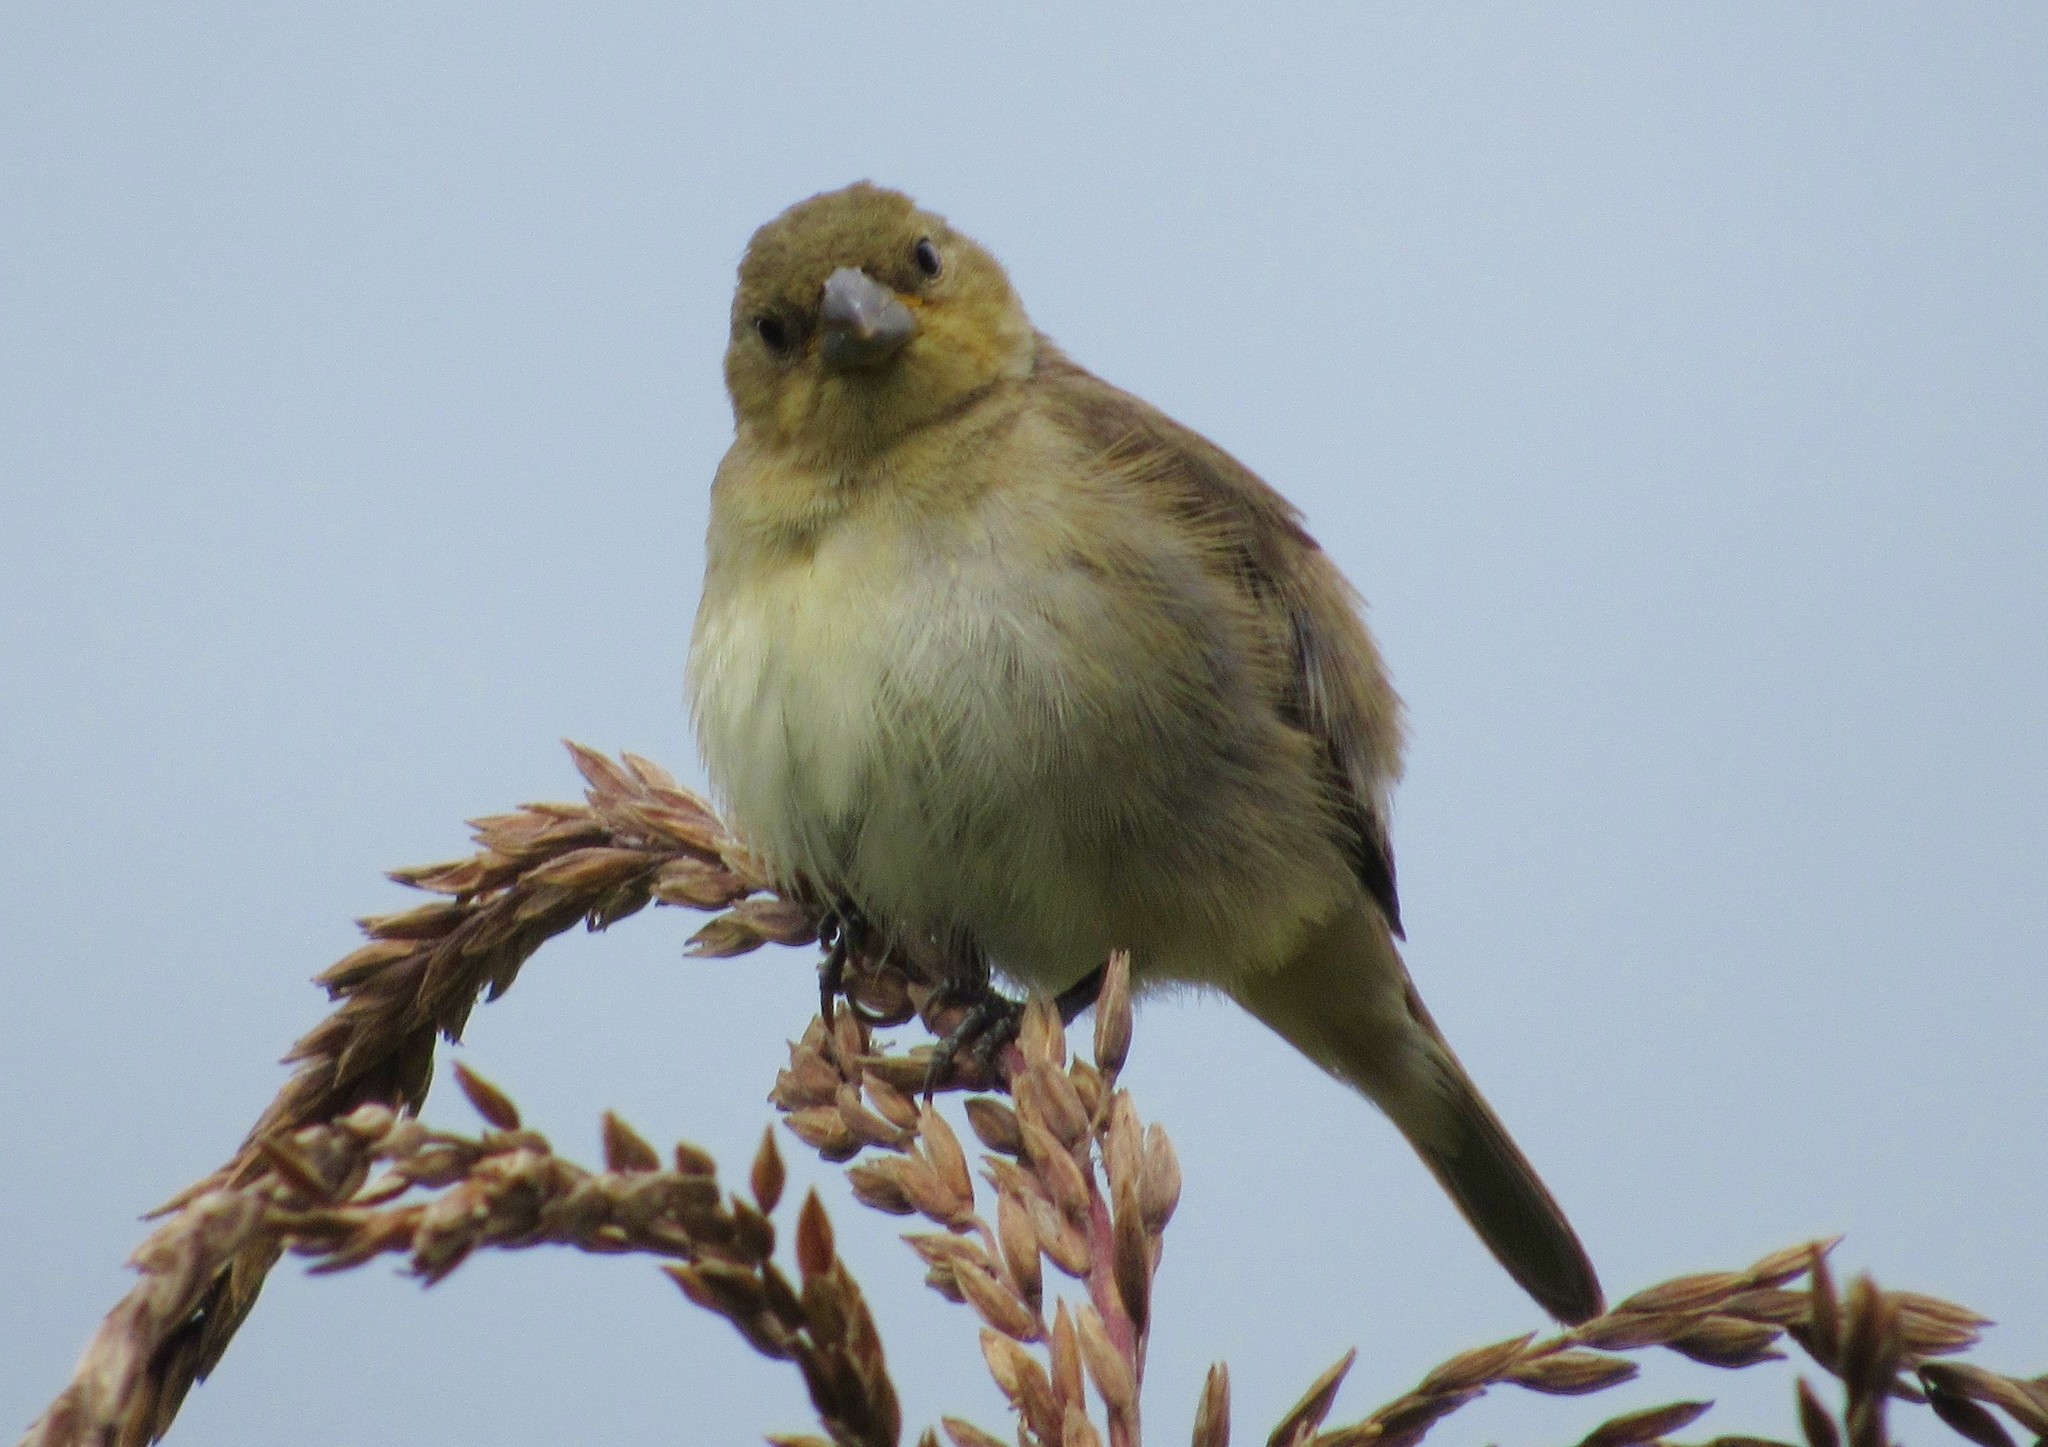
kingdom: Animalia
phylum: Chordata
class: Aves
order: Passeriformes
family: Thraupidae
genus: Sporophila
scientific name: Sporophila
